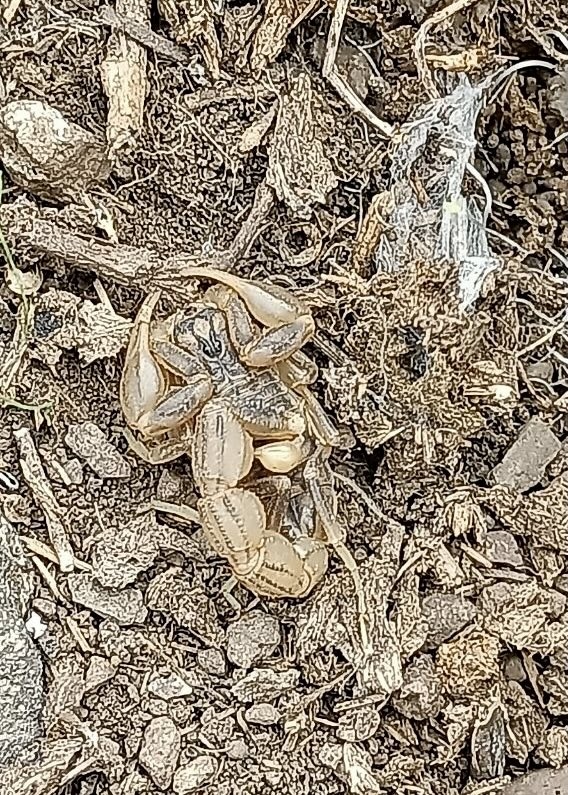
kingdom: Animalia
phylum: Arthropoda
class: Arachnida
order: Scorpiones
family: Buthidae
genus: Mesobuthus
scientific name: Mesobuthus eupeus
